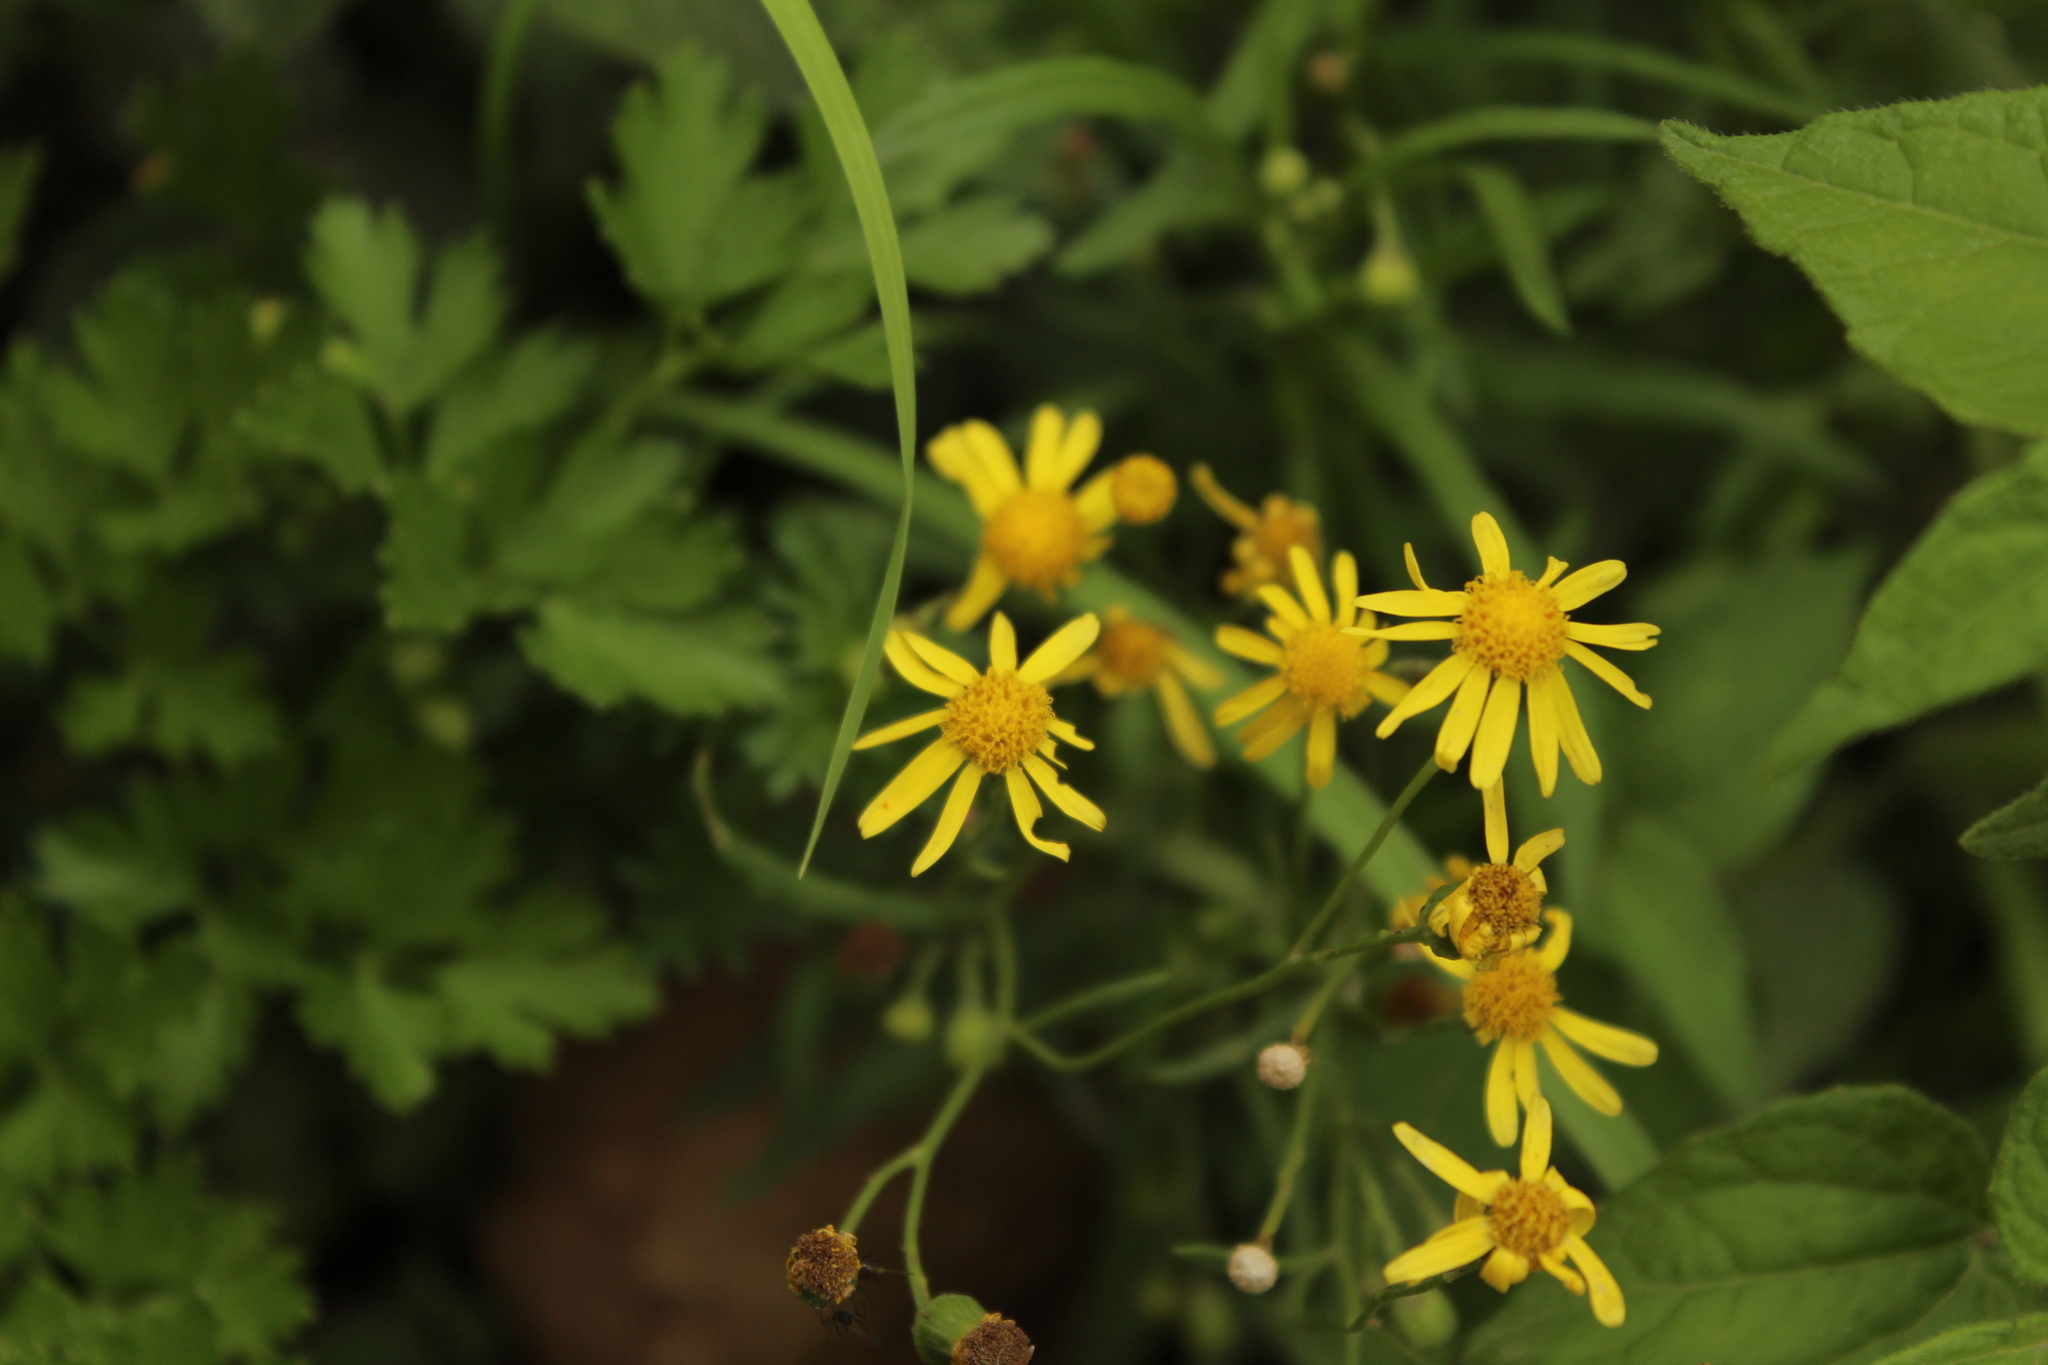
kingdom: Plantae
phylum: Tracheophyta
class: Magnoliopsida
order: Asterales
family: Asteraceae
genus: Senecio
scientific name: Senecio madagascariensis
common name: Madagascar ragwort
